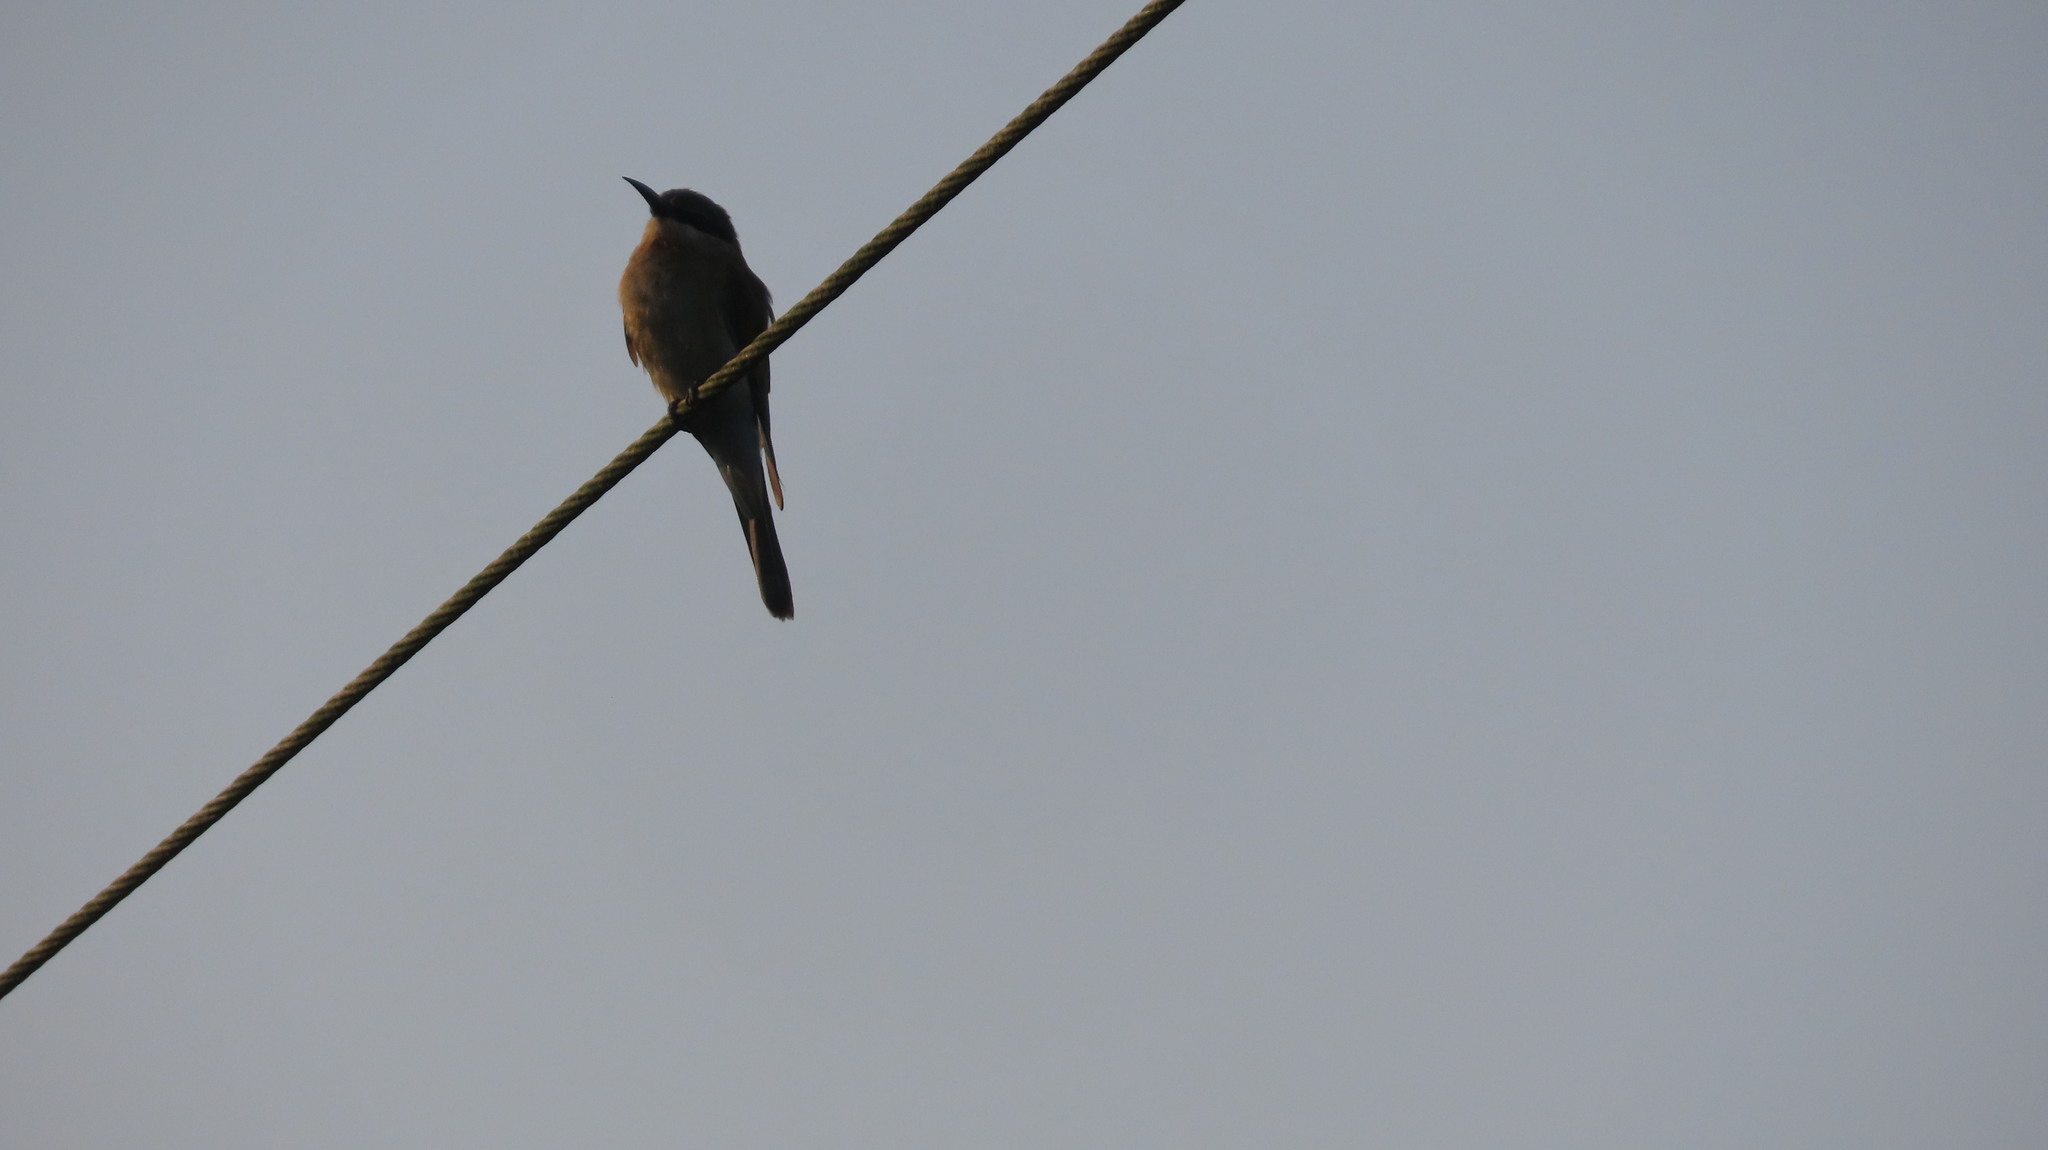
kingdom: Animalia
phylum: Chordata
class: Aves
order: Coraciiformes
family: Meropidae
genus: Merops
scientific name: Merops philippinus
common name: Blue-tailed bee-eater
